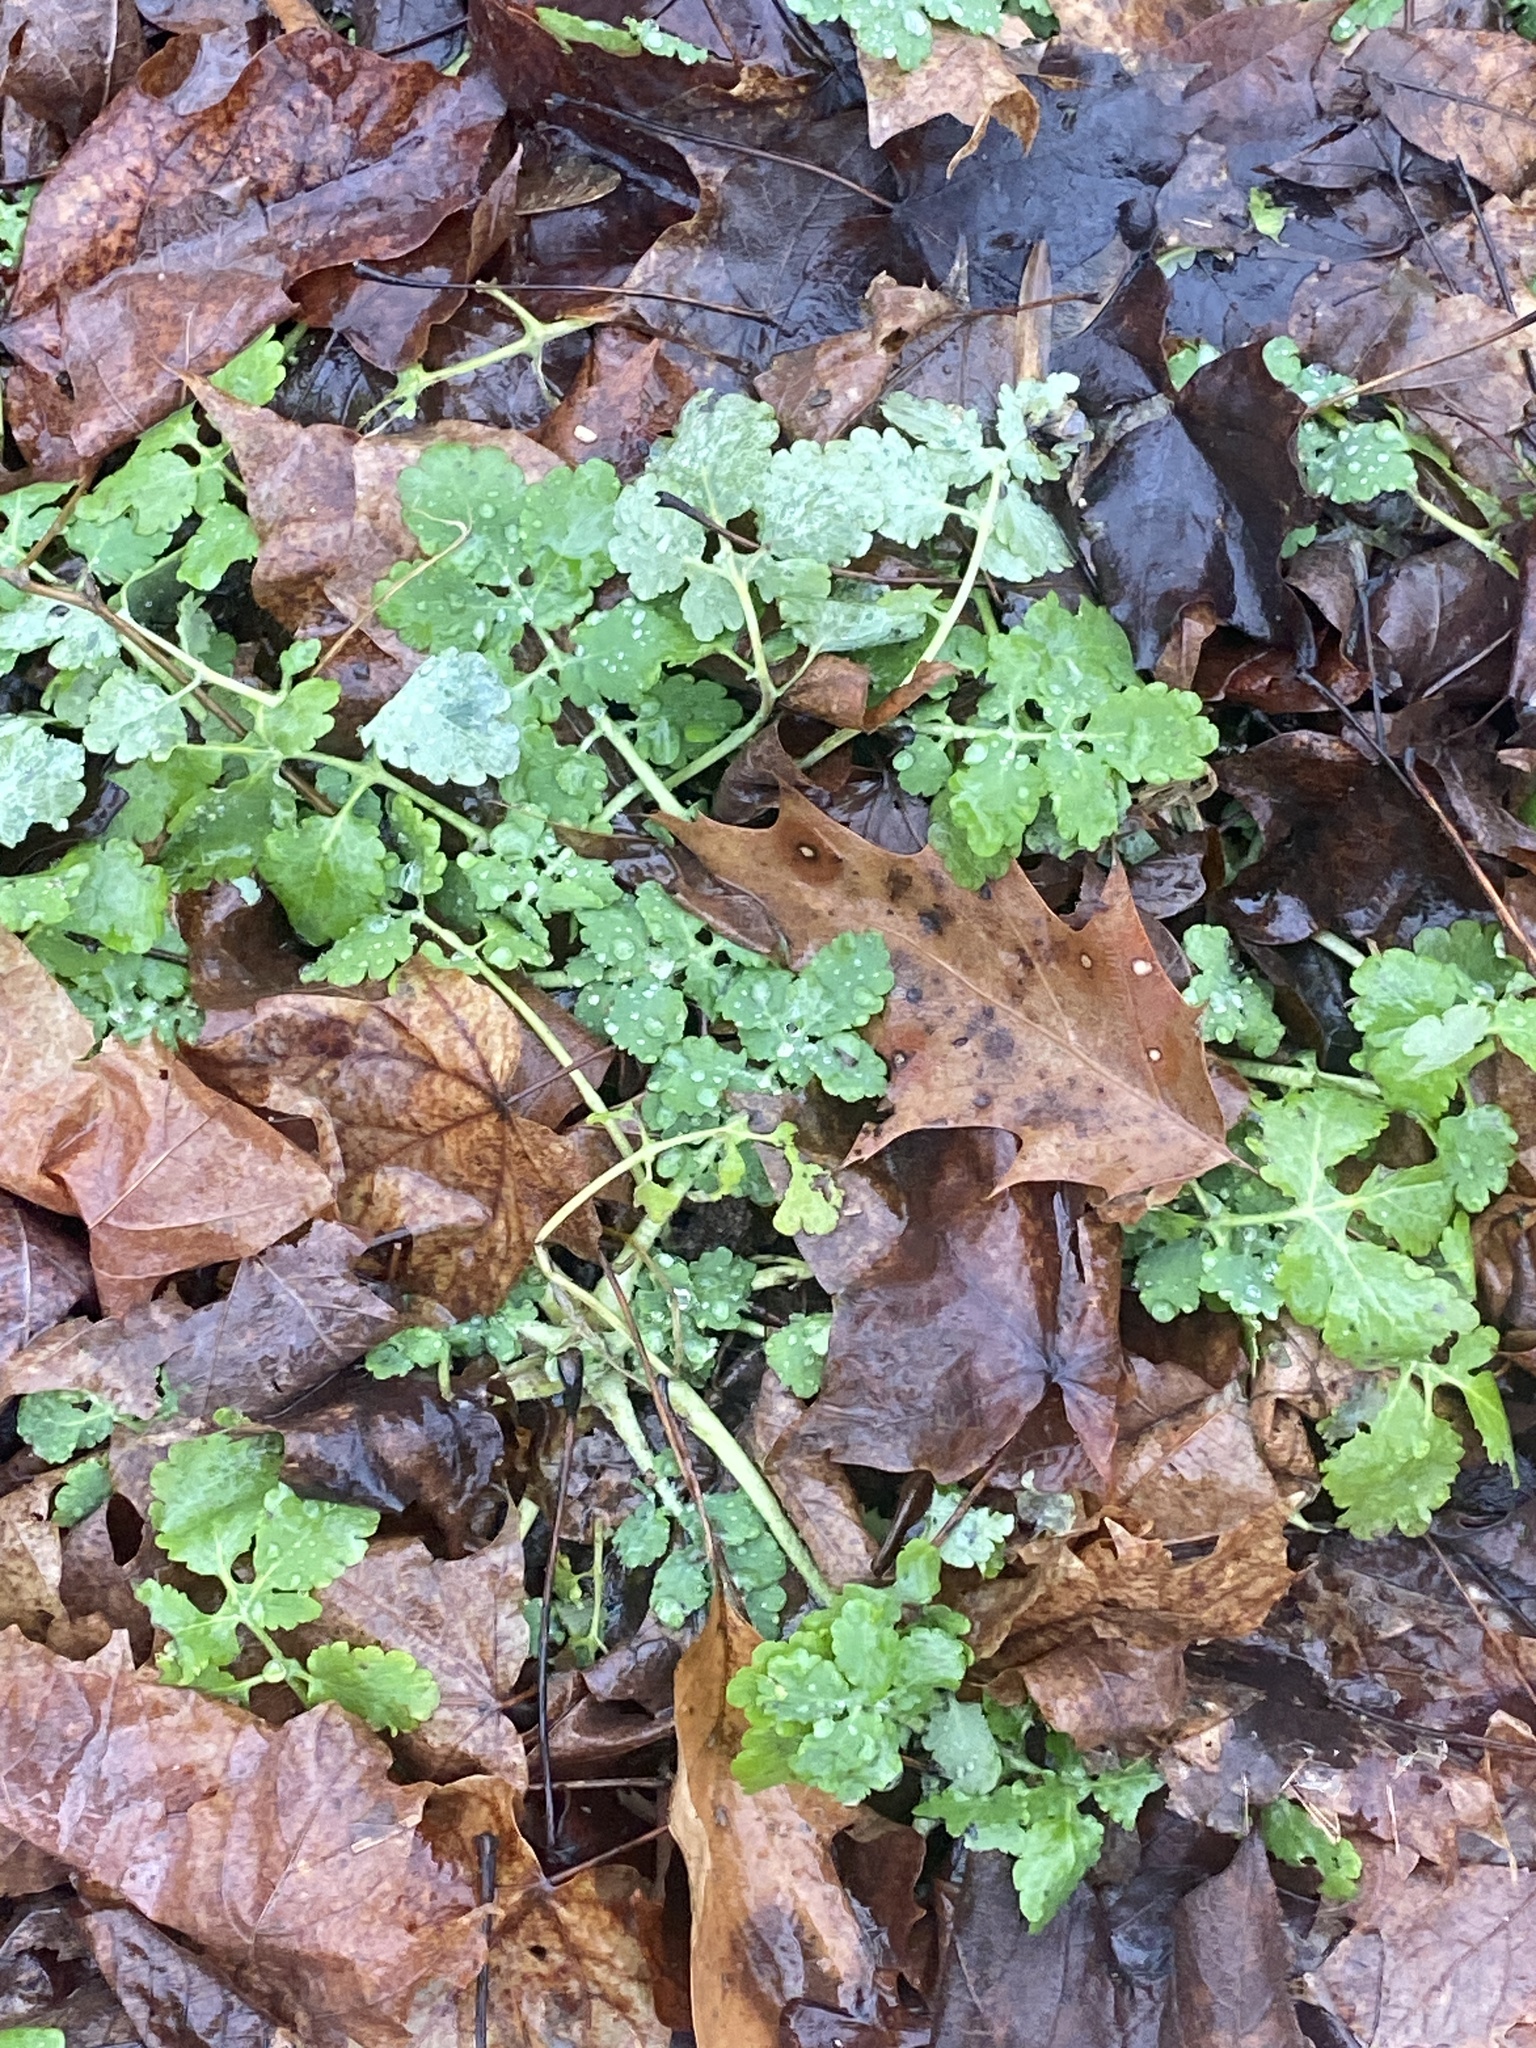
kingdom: Plantae
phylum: Tracheophyta
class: Magnoliopsida
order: Ranunculales
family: Papaveraceae
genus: Chelidonium
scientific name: Chelidonium majus
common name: Greater celandine
